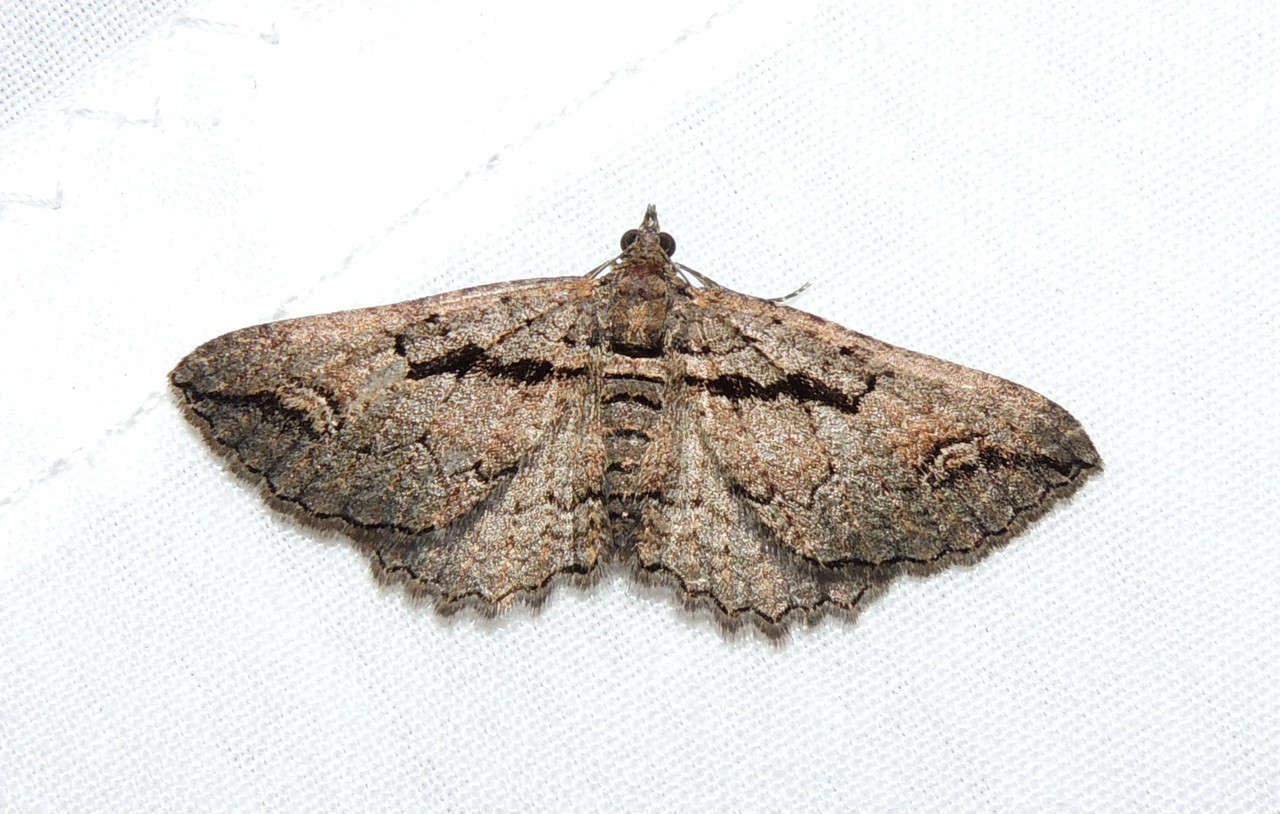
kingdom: Animalia
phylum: Arthropoda
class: Insecta
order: Lepidoptera
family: Geometridae
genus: Chrysolarentia
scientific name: Chrysolarentia plagiocausta
